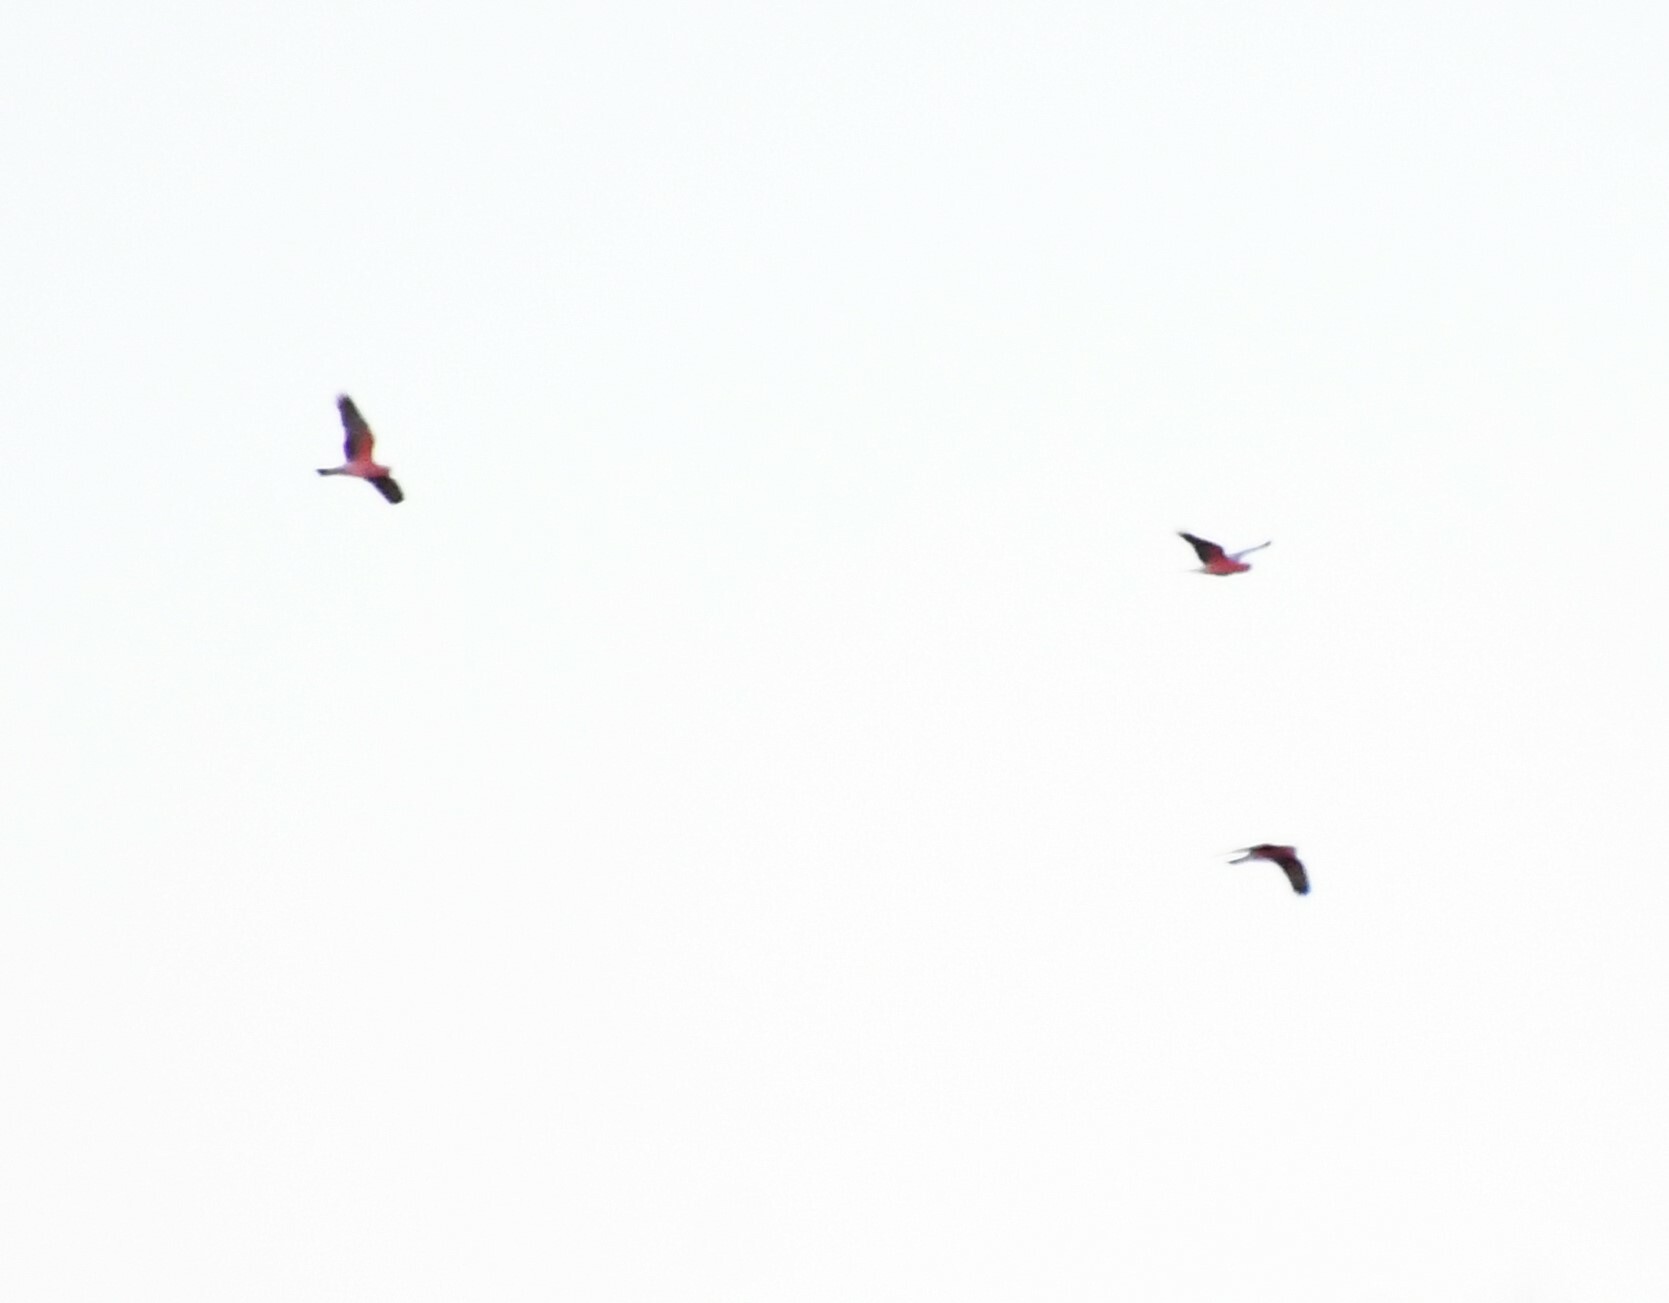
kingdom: Animalia
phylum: Chordata
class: Aves
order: Psittaciformes
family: Psittacidae
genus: Eolophus
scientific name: Eolophus roseicapilla
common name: Galah
